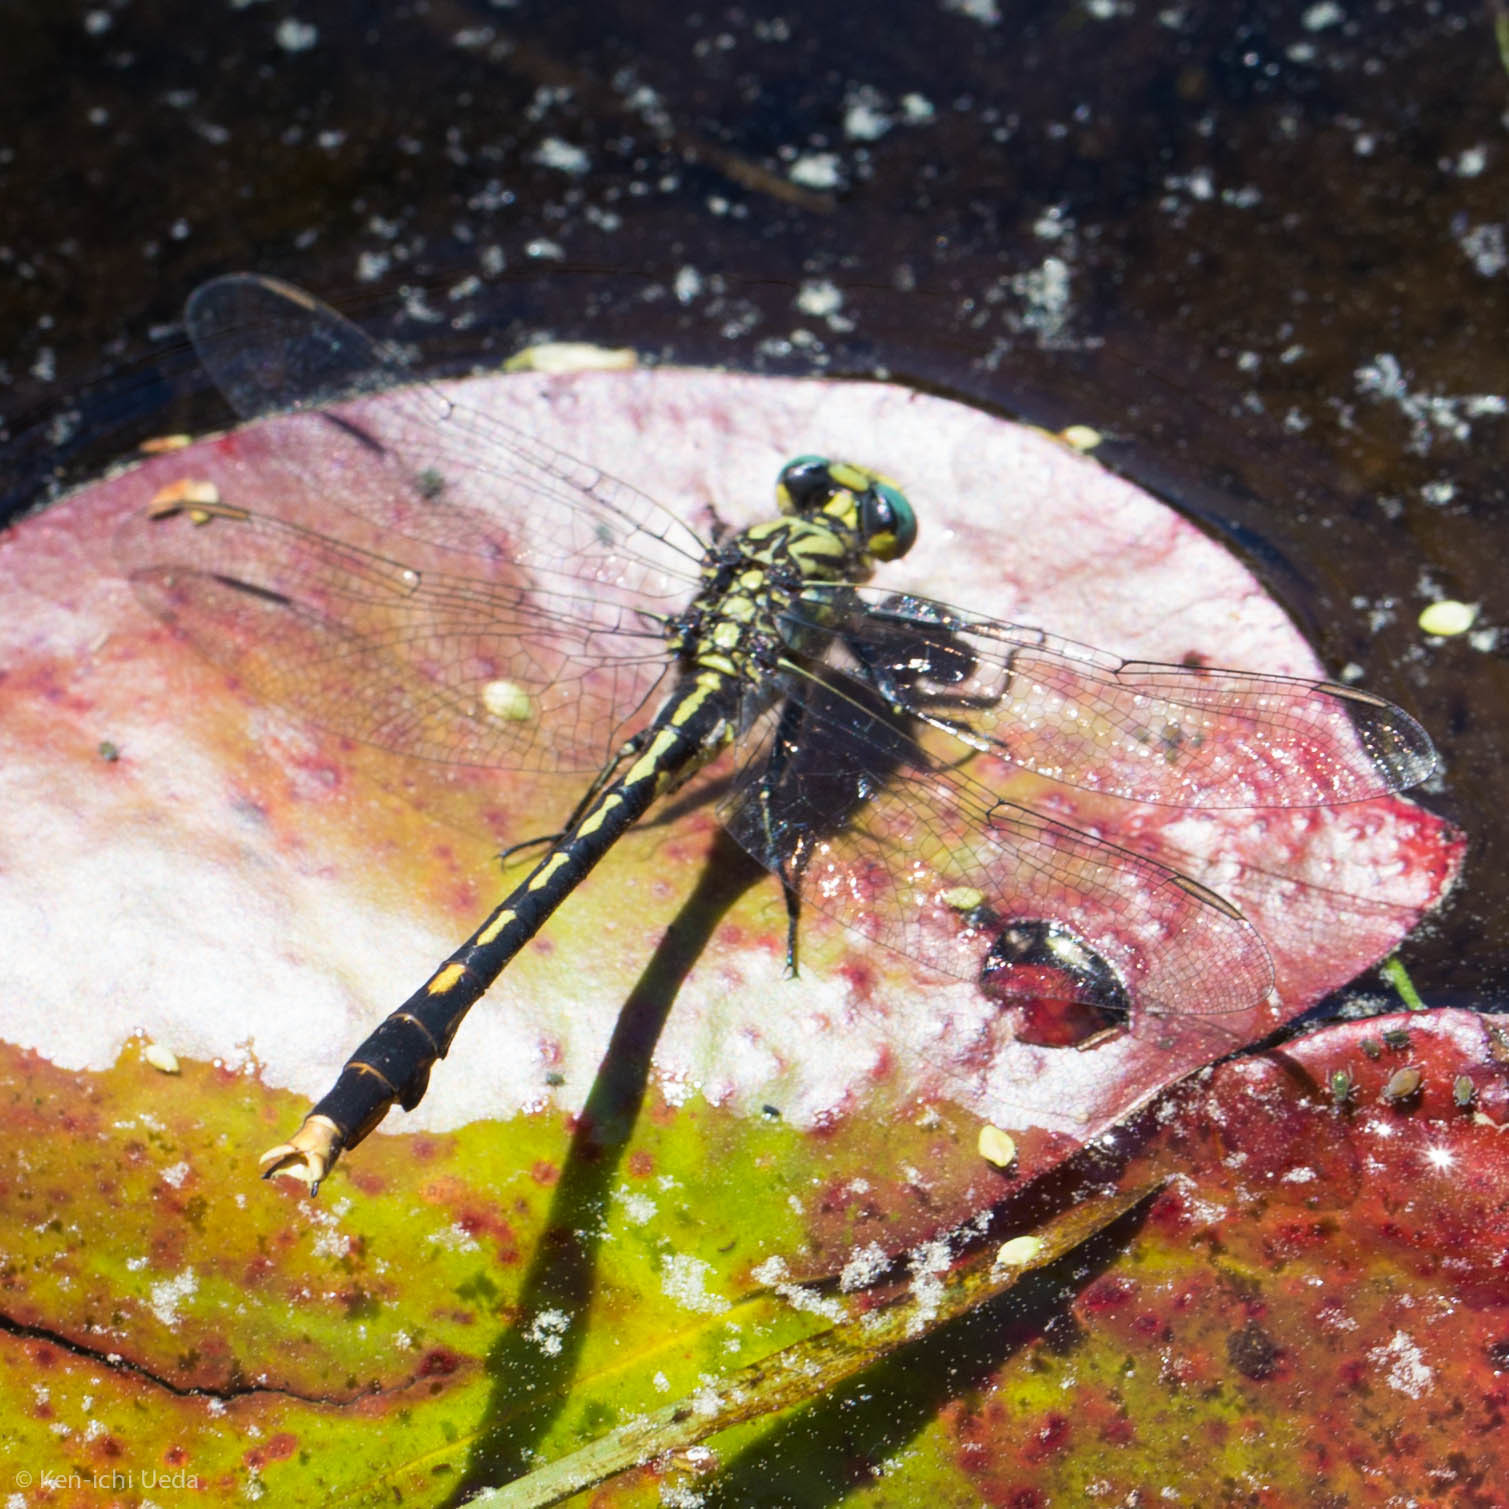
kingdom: Animalia
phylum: Arthropoda
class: Insecta
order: Odonata
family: Gomphidae
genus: Arigomphus
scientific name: Arigomphus villosipes
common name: Unicorn clubtail
